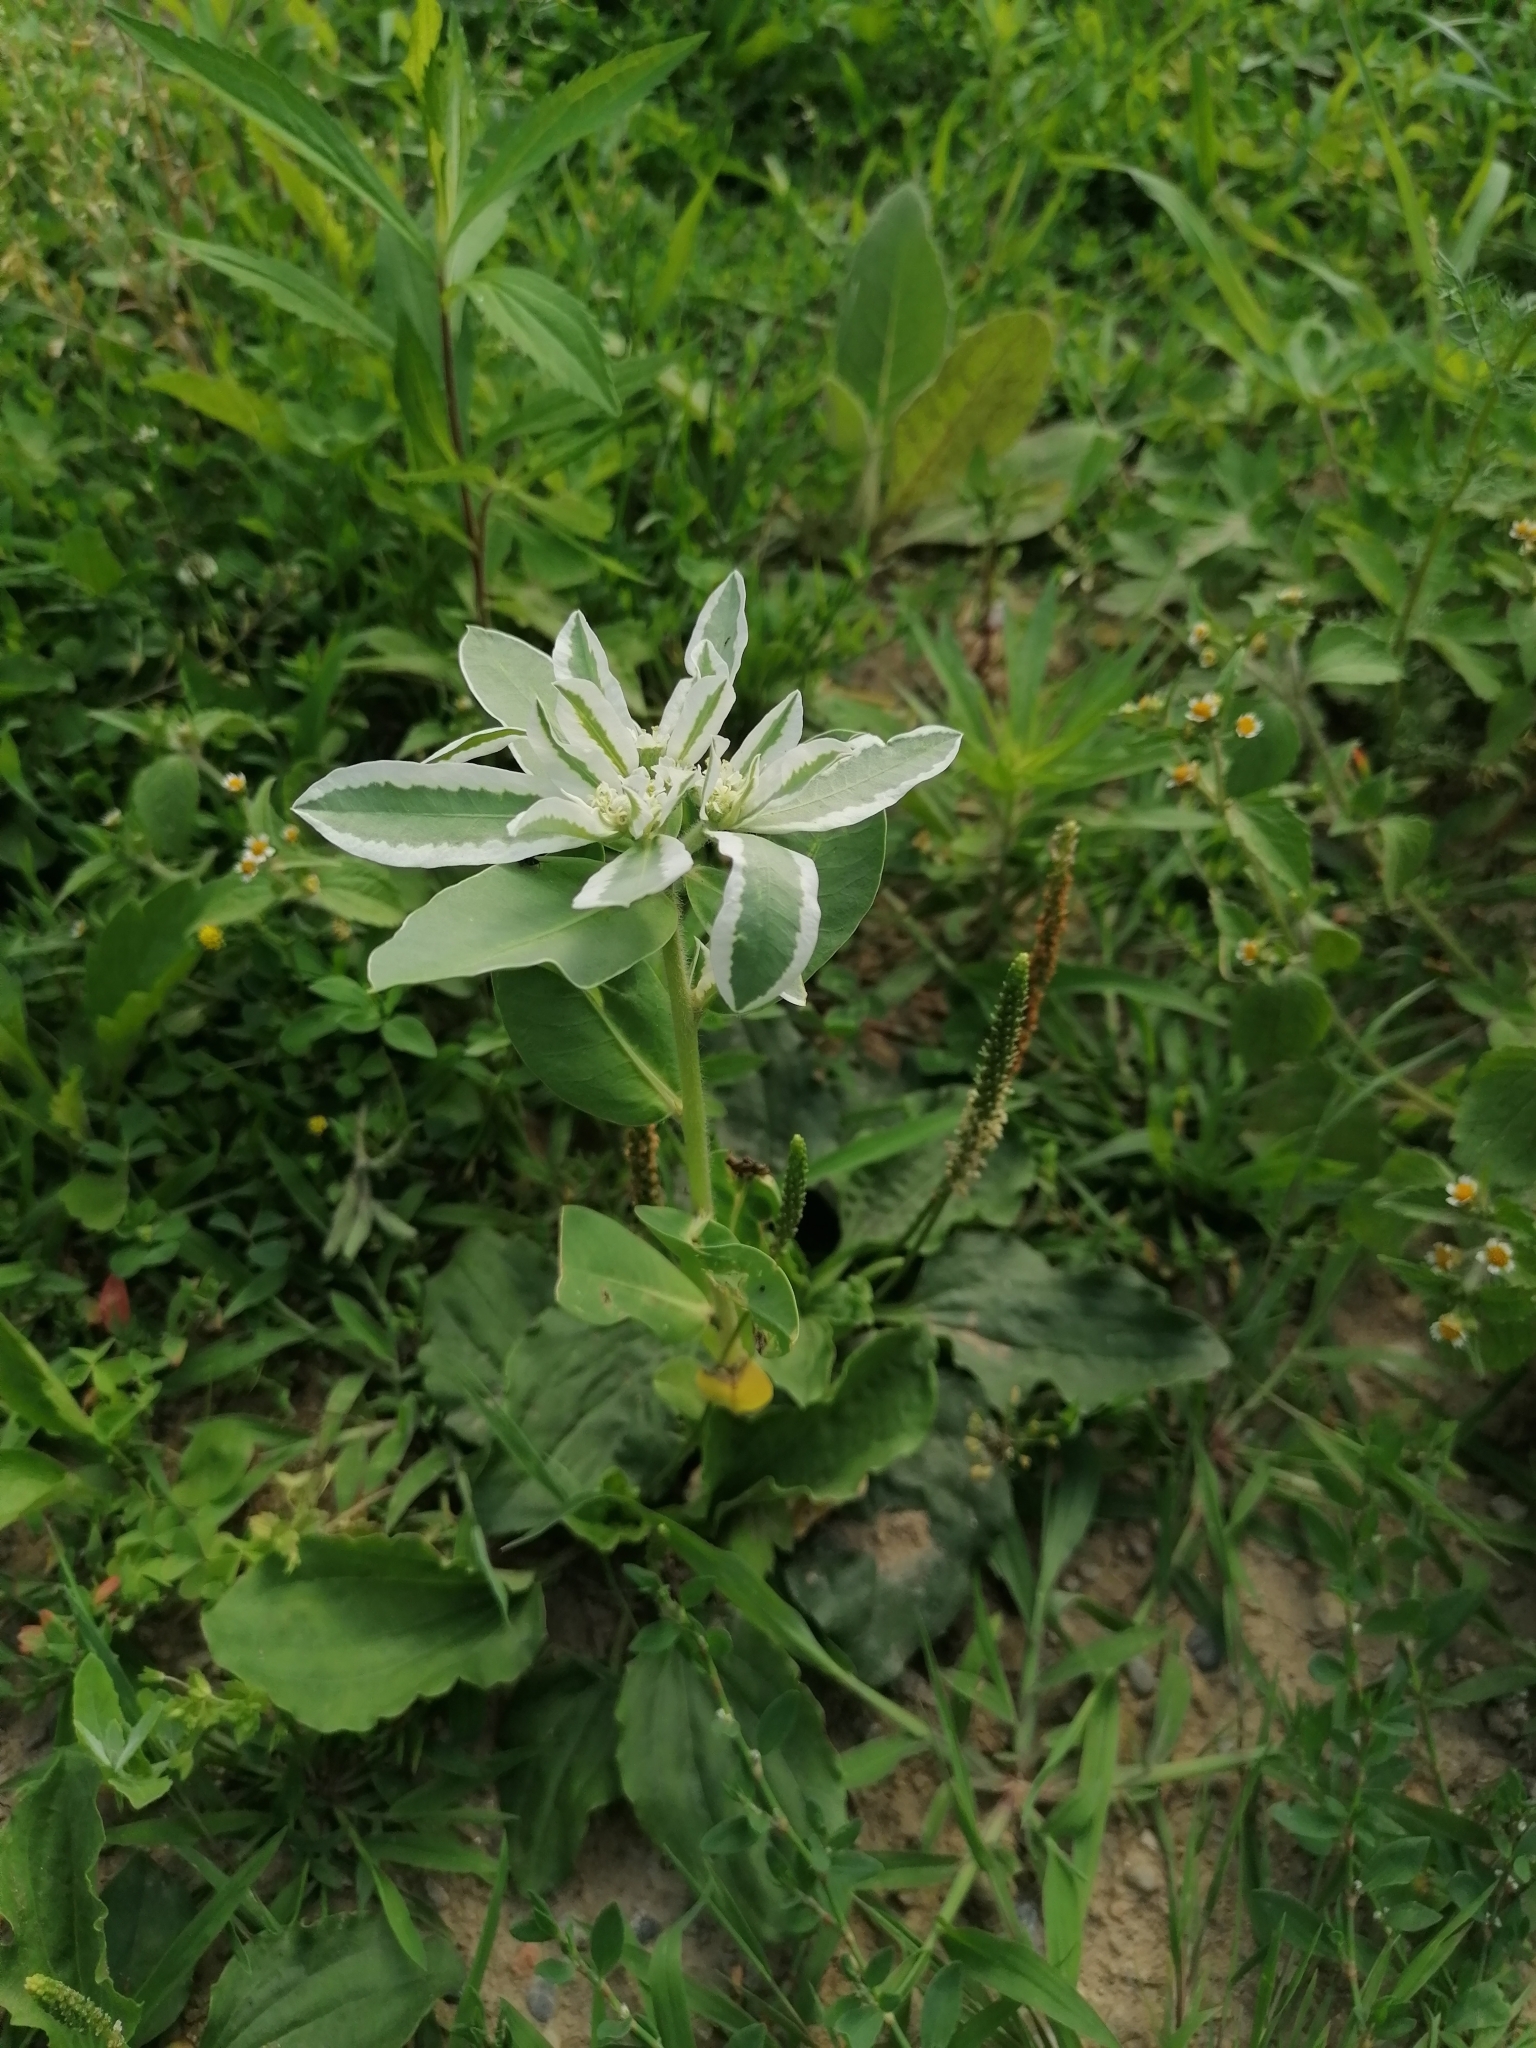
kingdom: Plantae
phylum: Tracheophyta
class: Magnoliopsida
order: Malpighiales
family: Euphorbiaceae
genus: Euphorbia
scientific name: Euphorbia marginata
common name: Ghostweed
